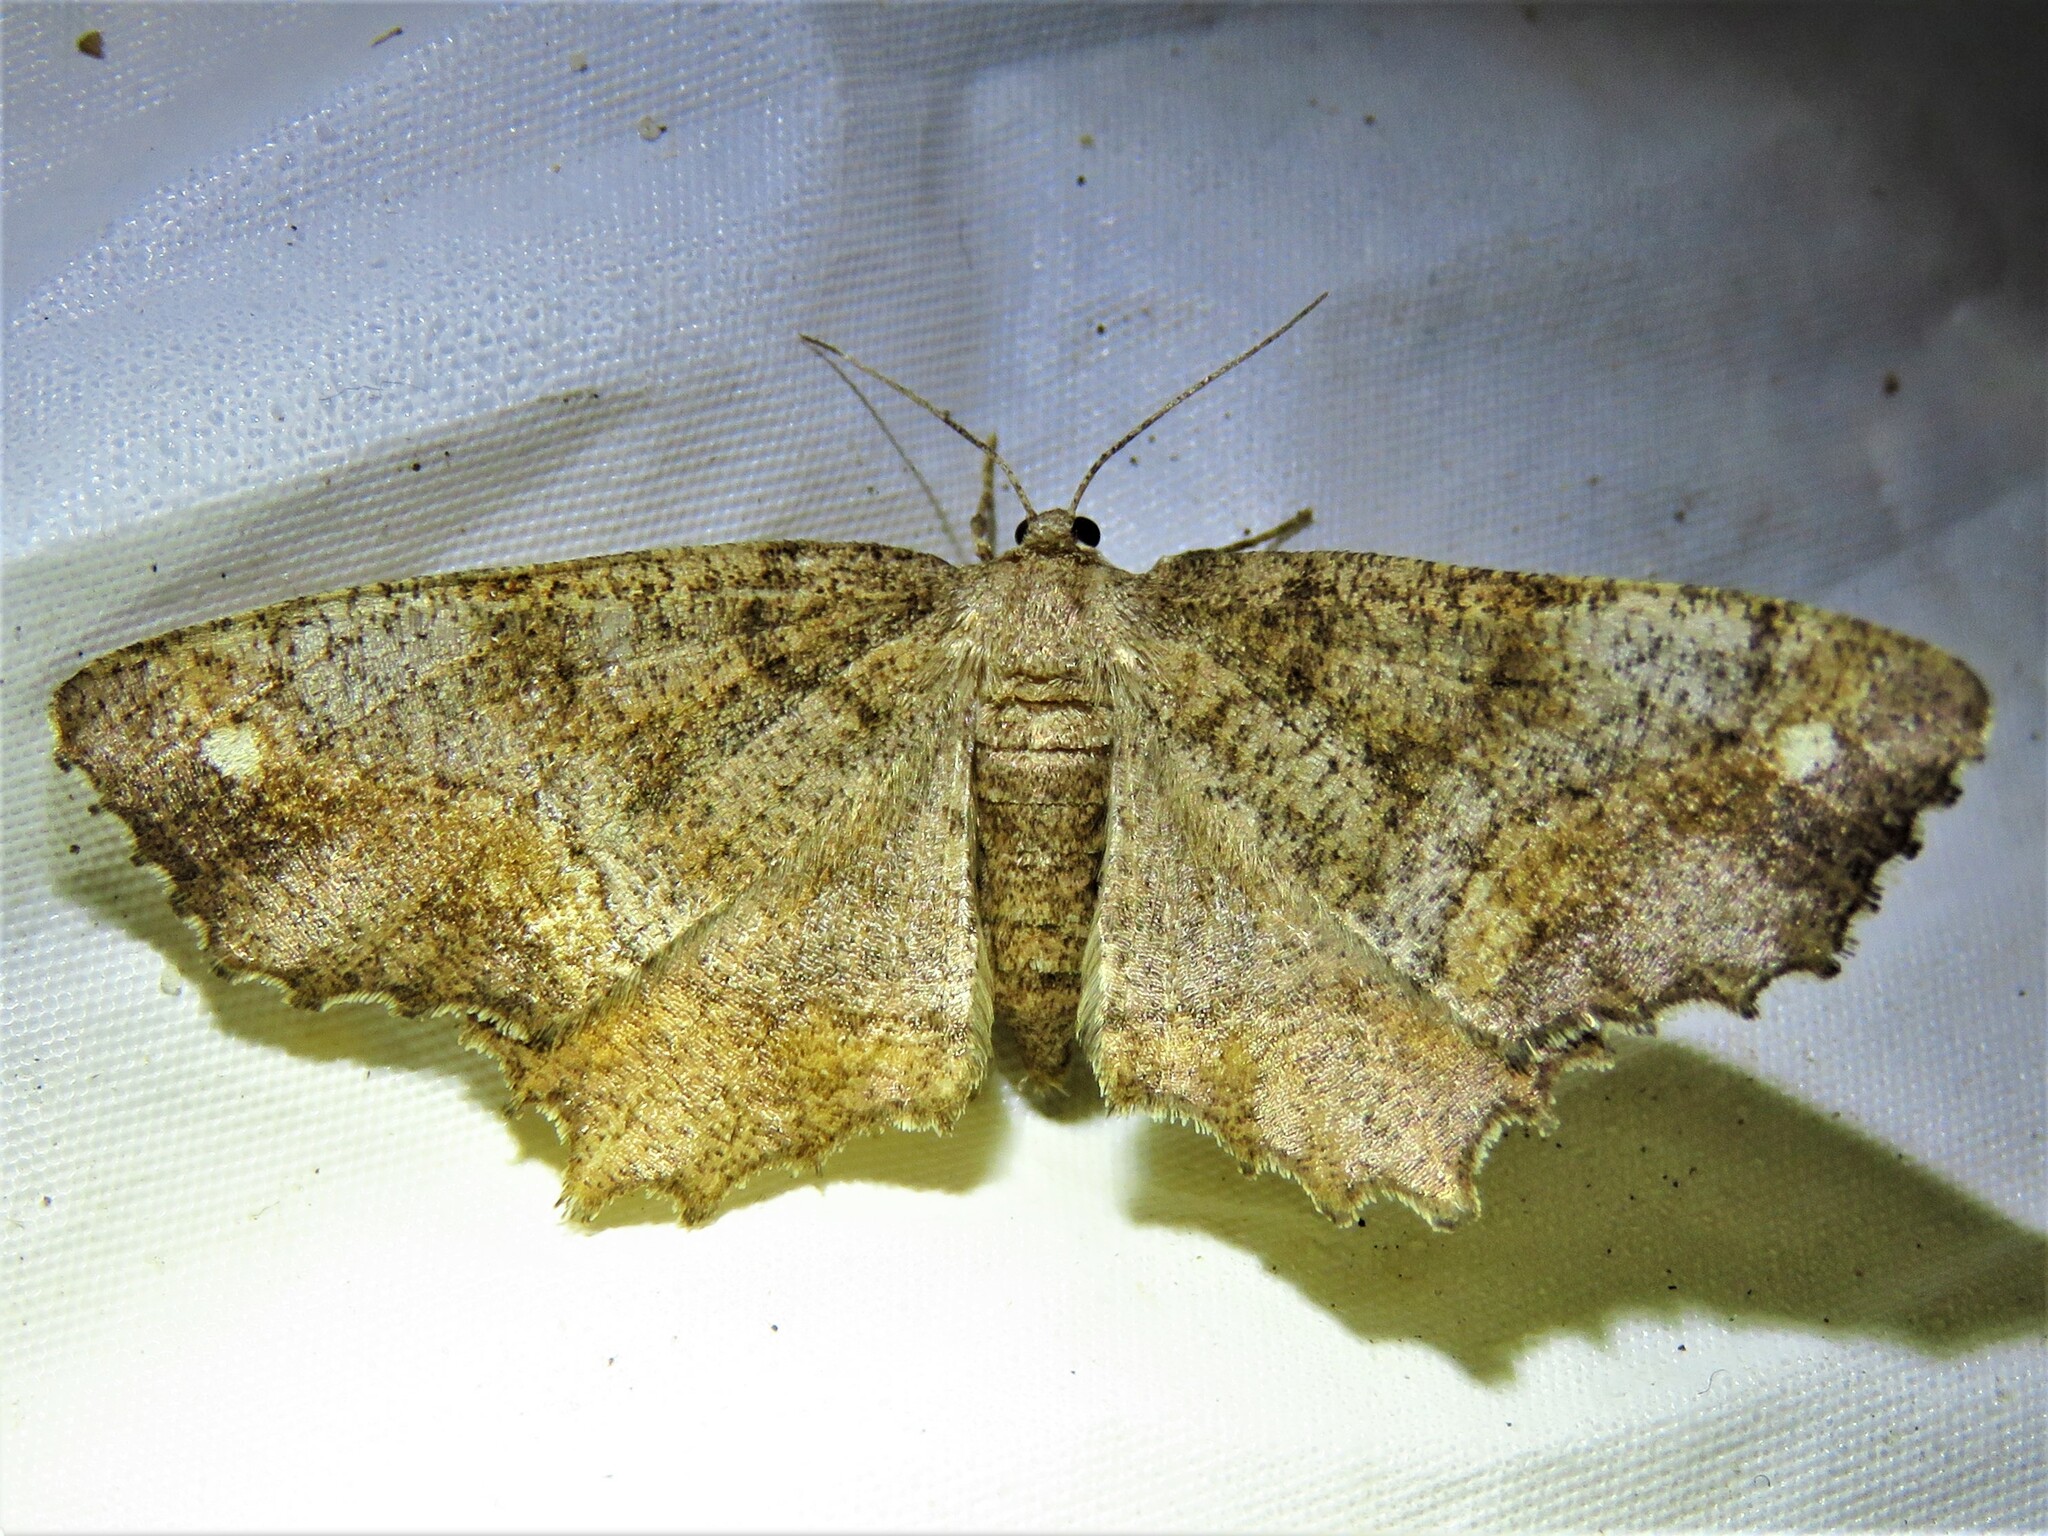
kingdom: Animalia
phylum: Arthropoda
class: Insecta
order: Lepidoptera
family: Geometridae
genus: Hypagyrtis
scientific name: Hypagyrtis unipunctata
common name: One-spotted variant
